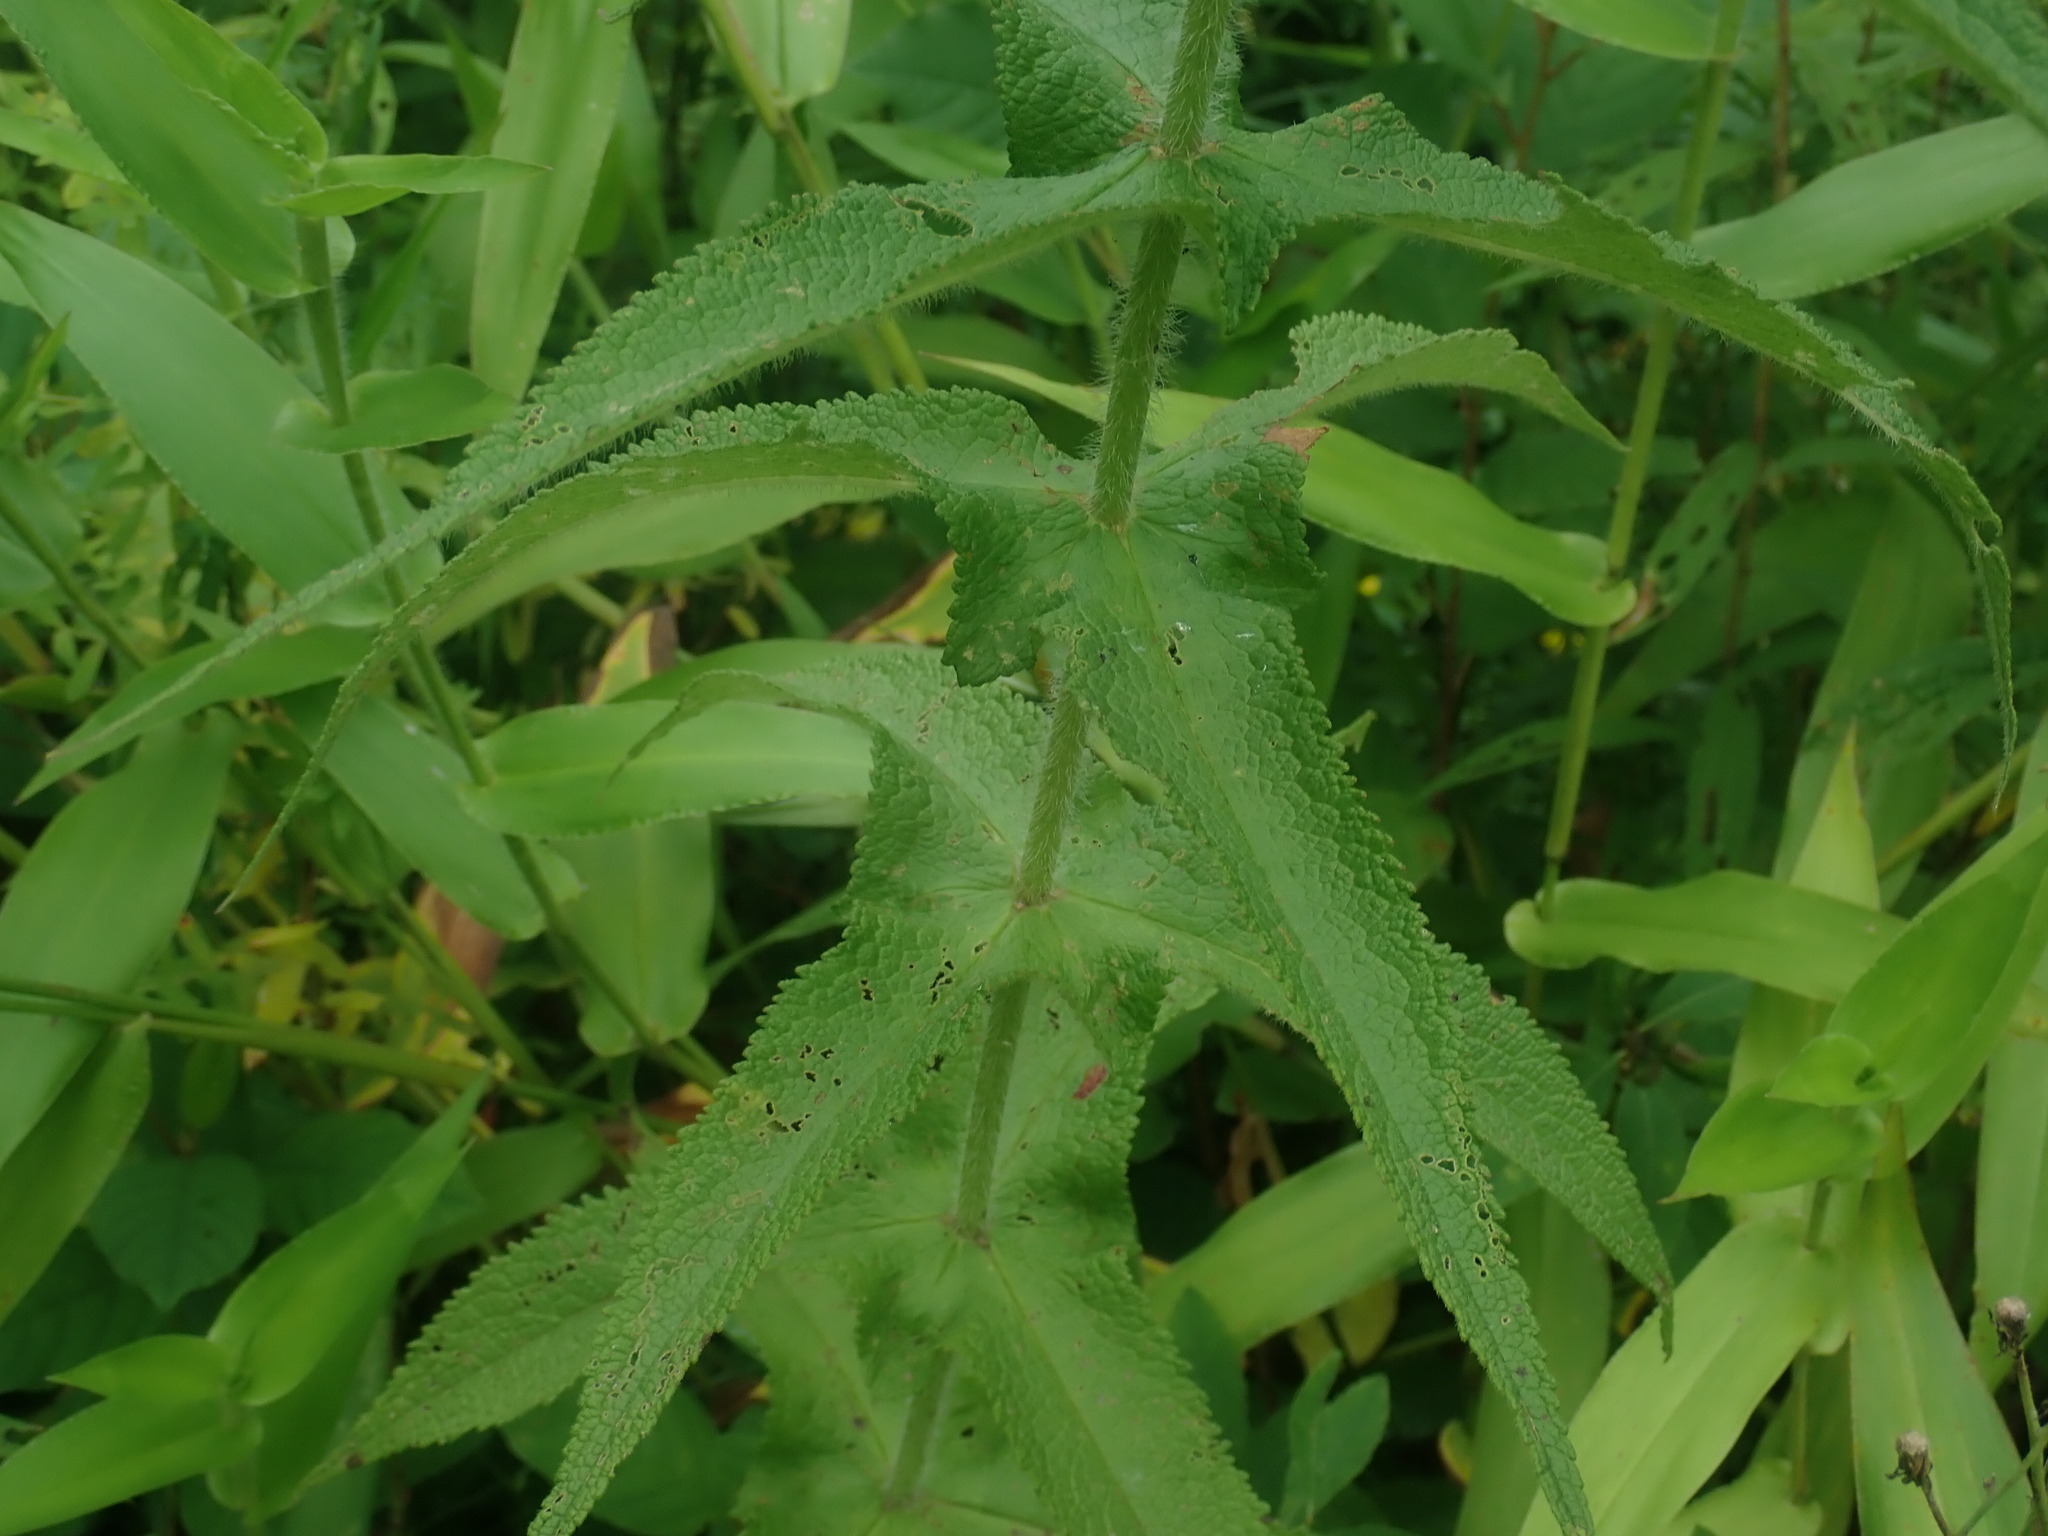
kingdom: Plantae
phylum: Tracheophyta
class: Magnoliopsida
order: Asterales
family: Asteraceae
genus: Eupatorium
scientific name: Eupatorium perfoliatum
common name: Boneset
